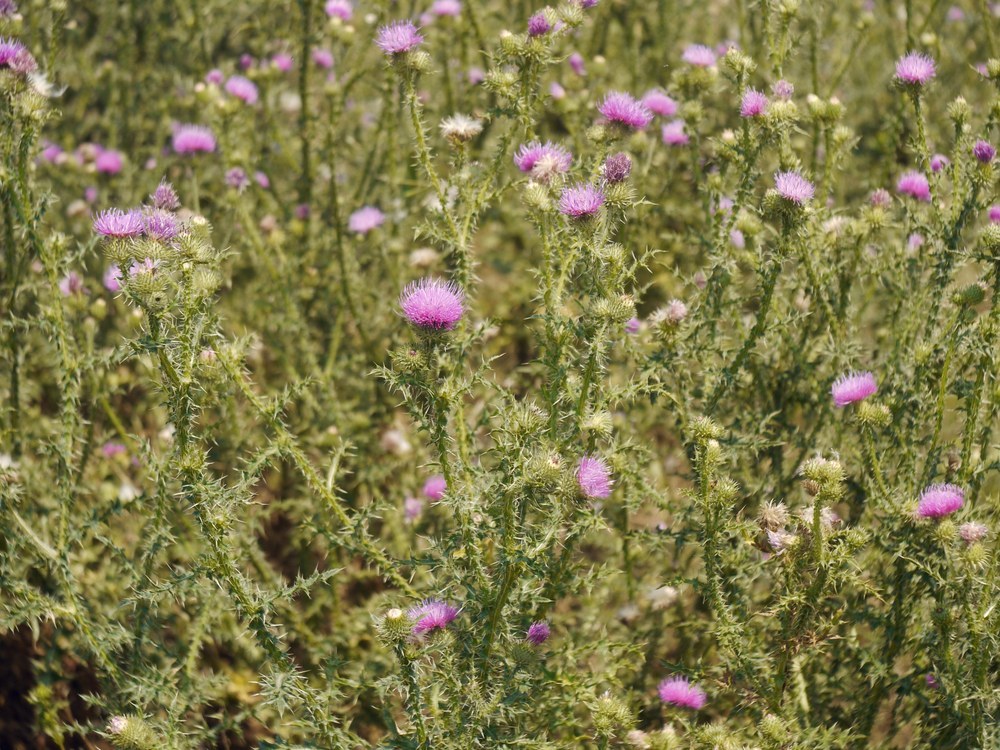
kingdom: Plantae
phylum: Tracheophyta
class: Magnoliopsida
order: Asterales
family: Asteraceae
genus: Lophiolepis
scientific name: Lophiolepis ukranica
